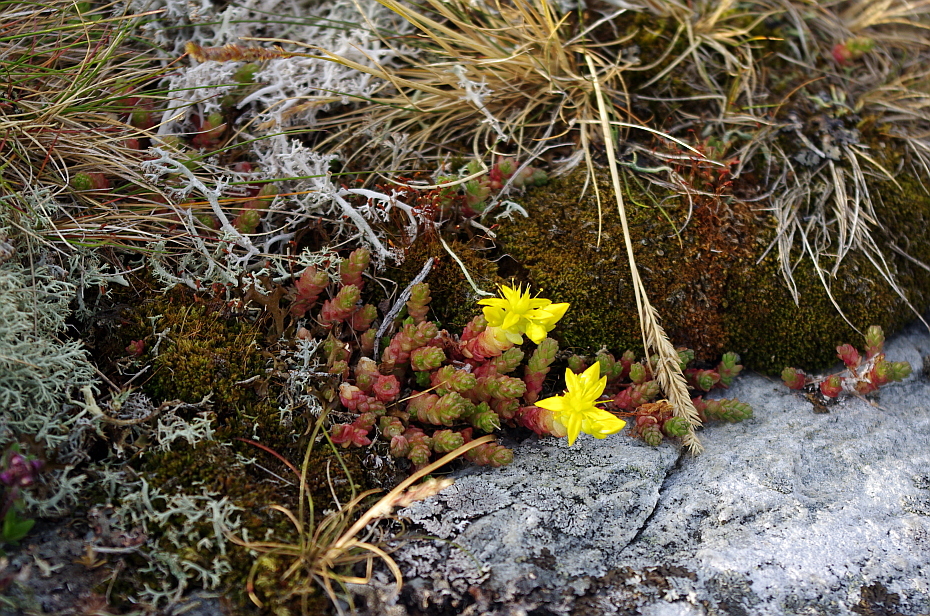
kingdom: Plantae
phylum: Tracheophyta
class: Magnoliopsida
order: Saxifragales
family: Crassulaceae
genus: Sedum
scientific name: Sedum acre
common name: Biting stonecrop
